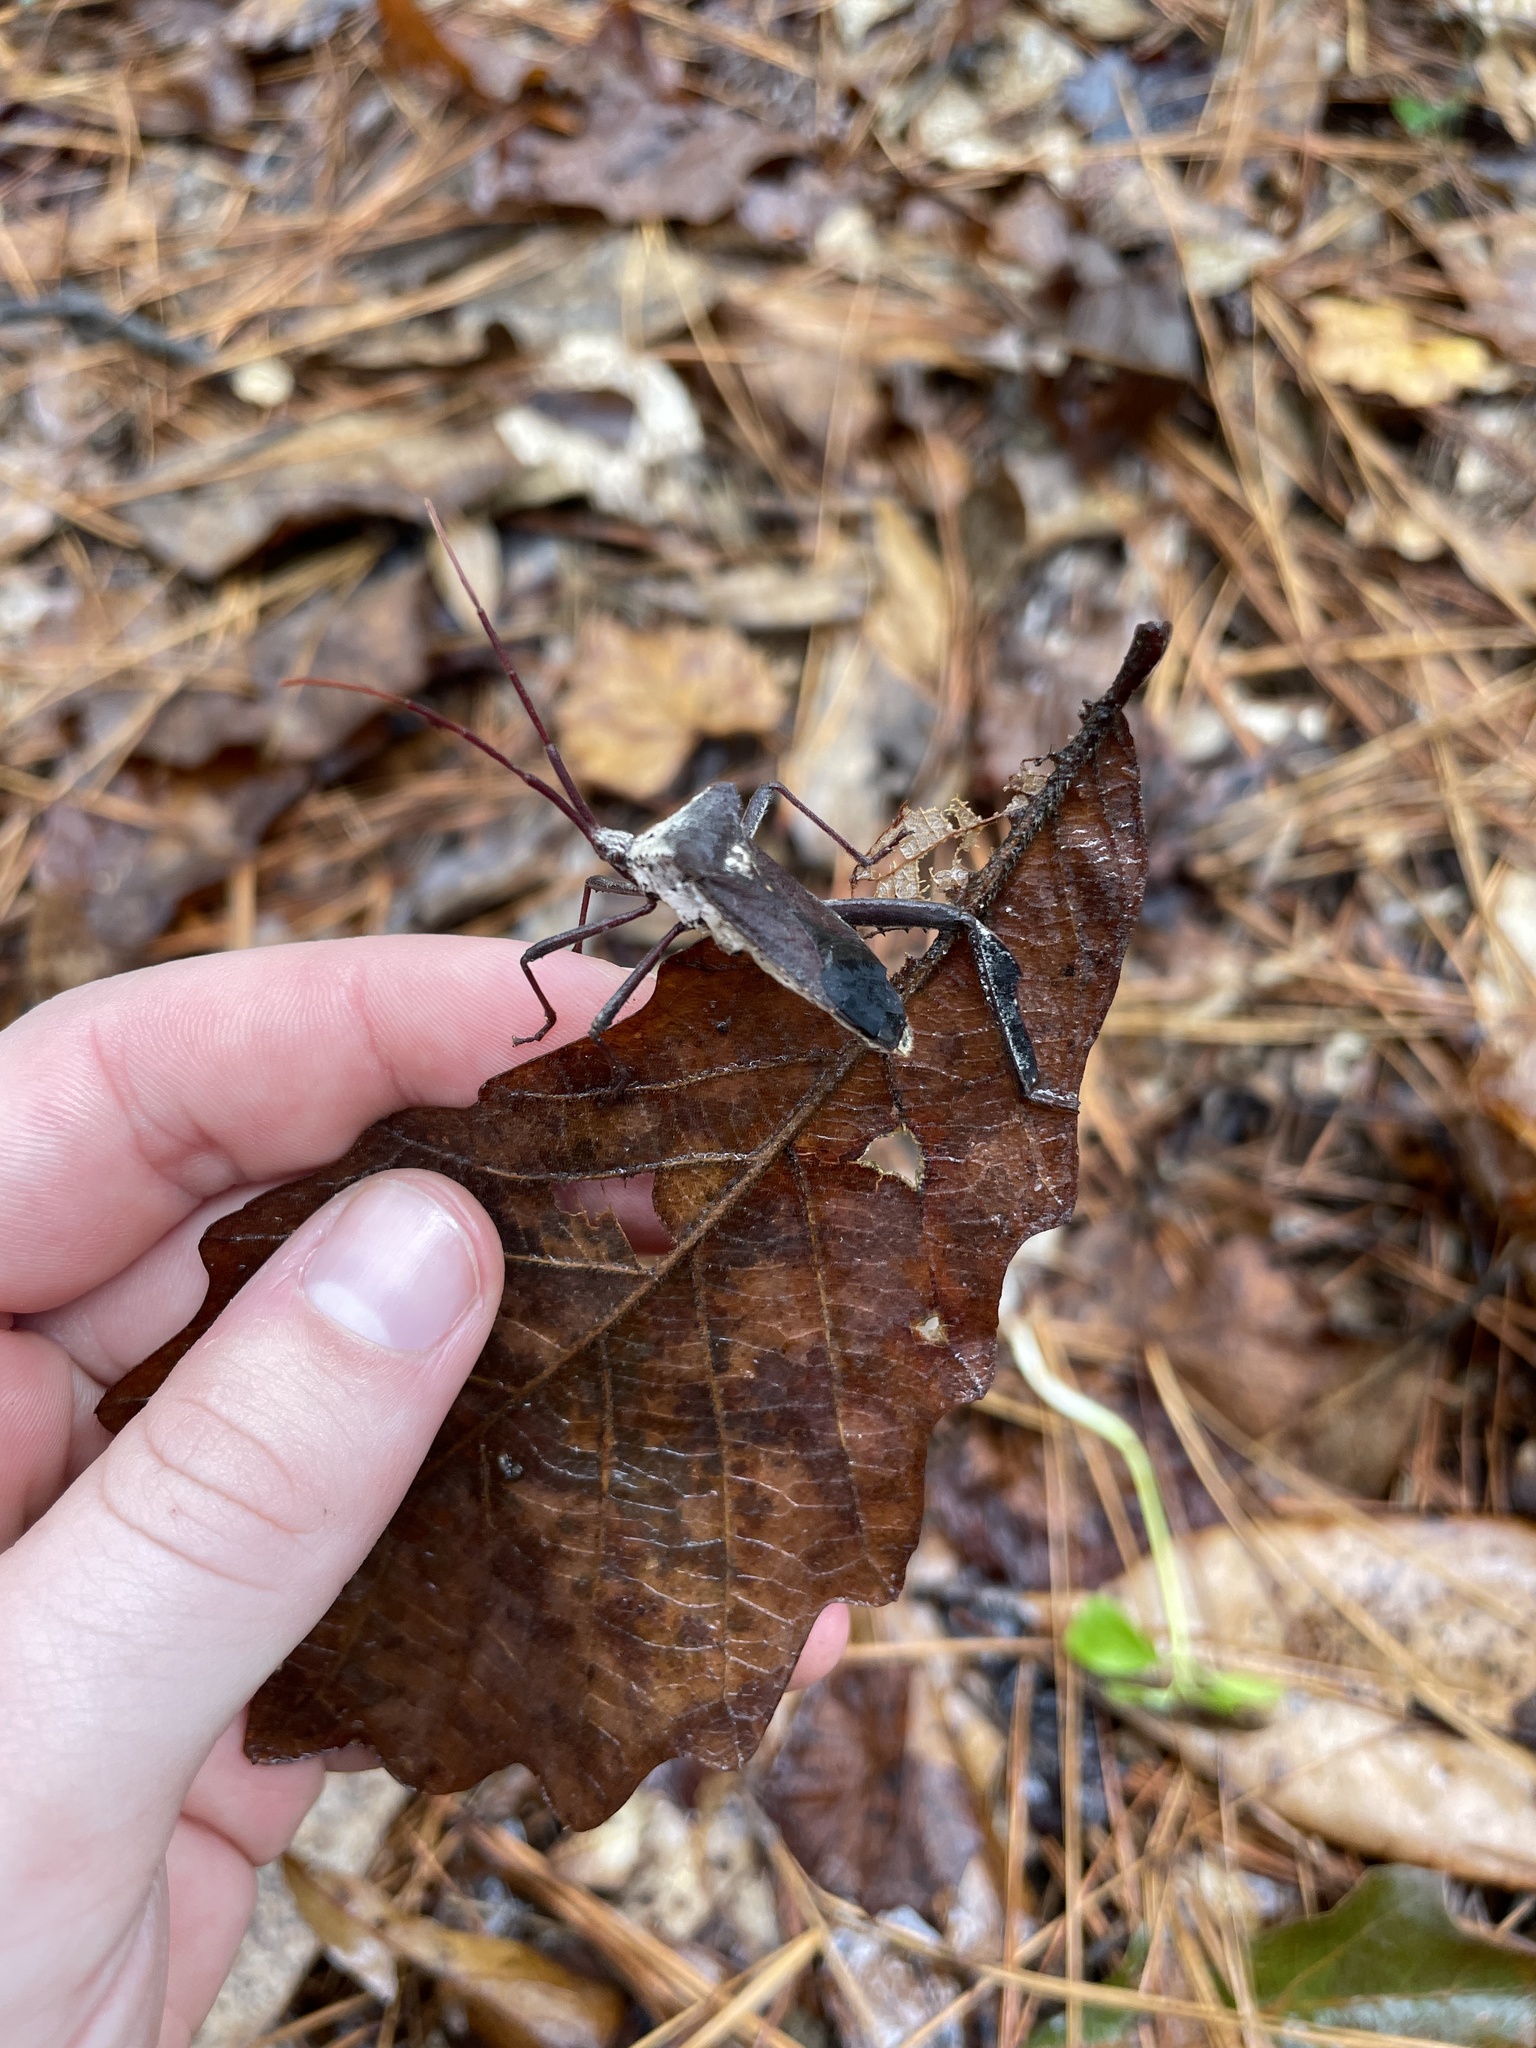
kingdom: Animalia
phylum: Arthropoda
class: Insecta
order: Hemiptera
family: Coreidae
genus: Acanthocephala
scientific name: Acanthocephala declivis
